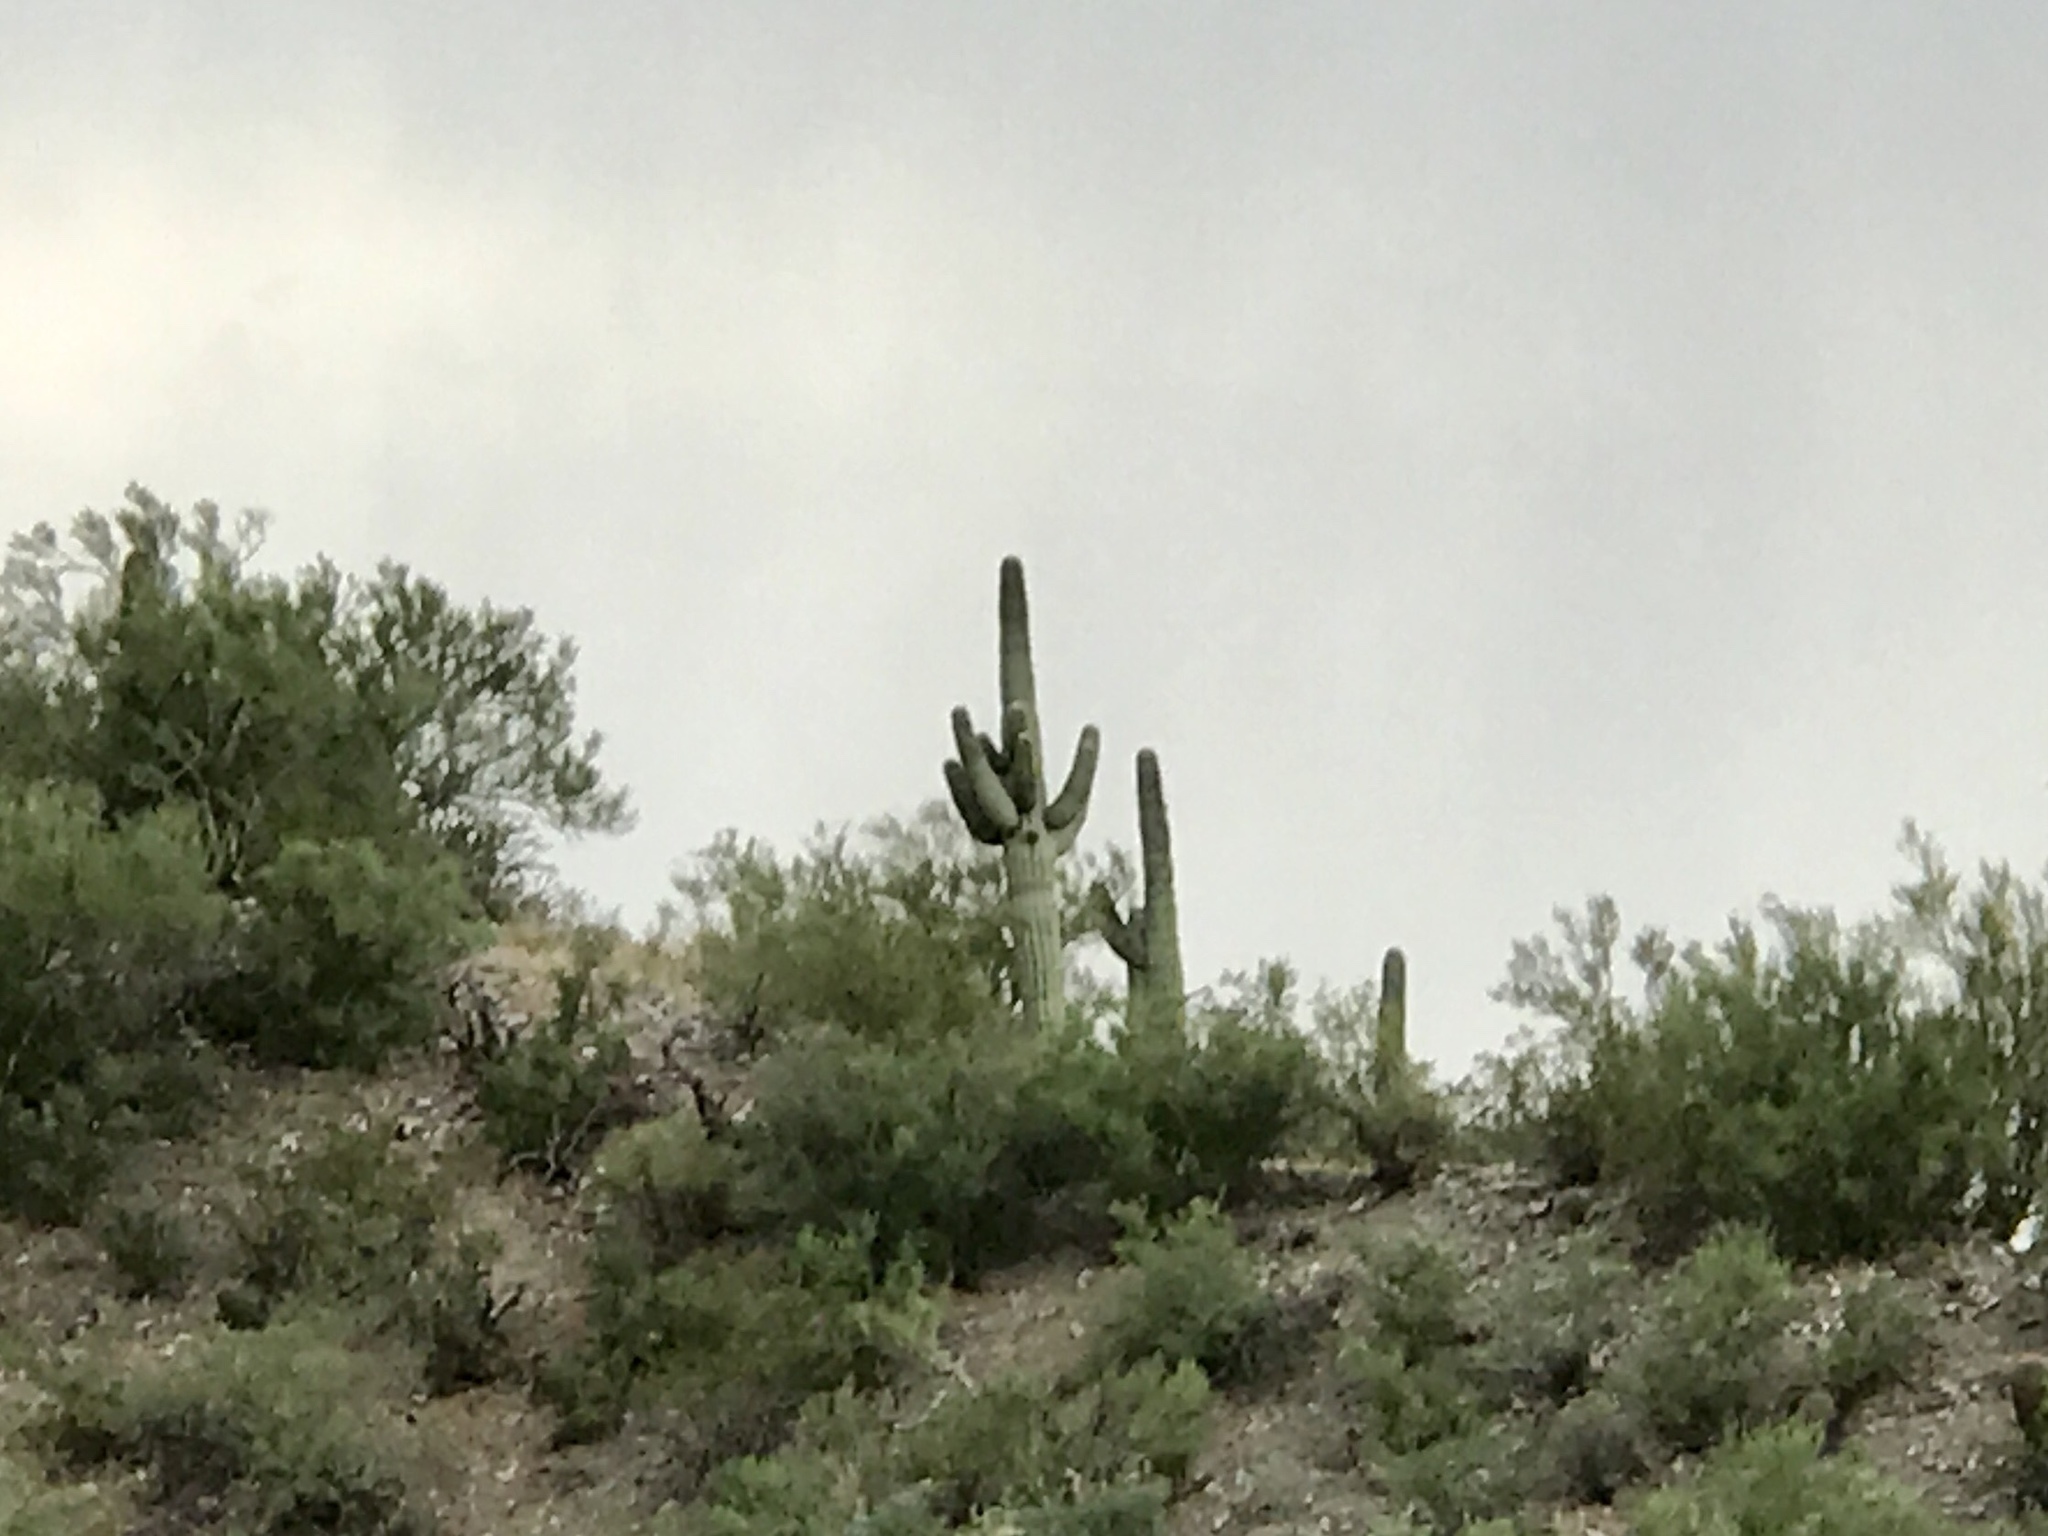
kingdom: Plantae
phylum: Tracheophyta
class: Magnoliopsida
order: Caryophyllales
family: Cactaceae
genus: Carnegiea
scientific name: Carnegiea gigantea
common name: Saguaro
